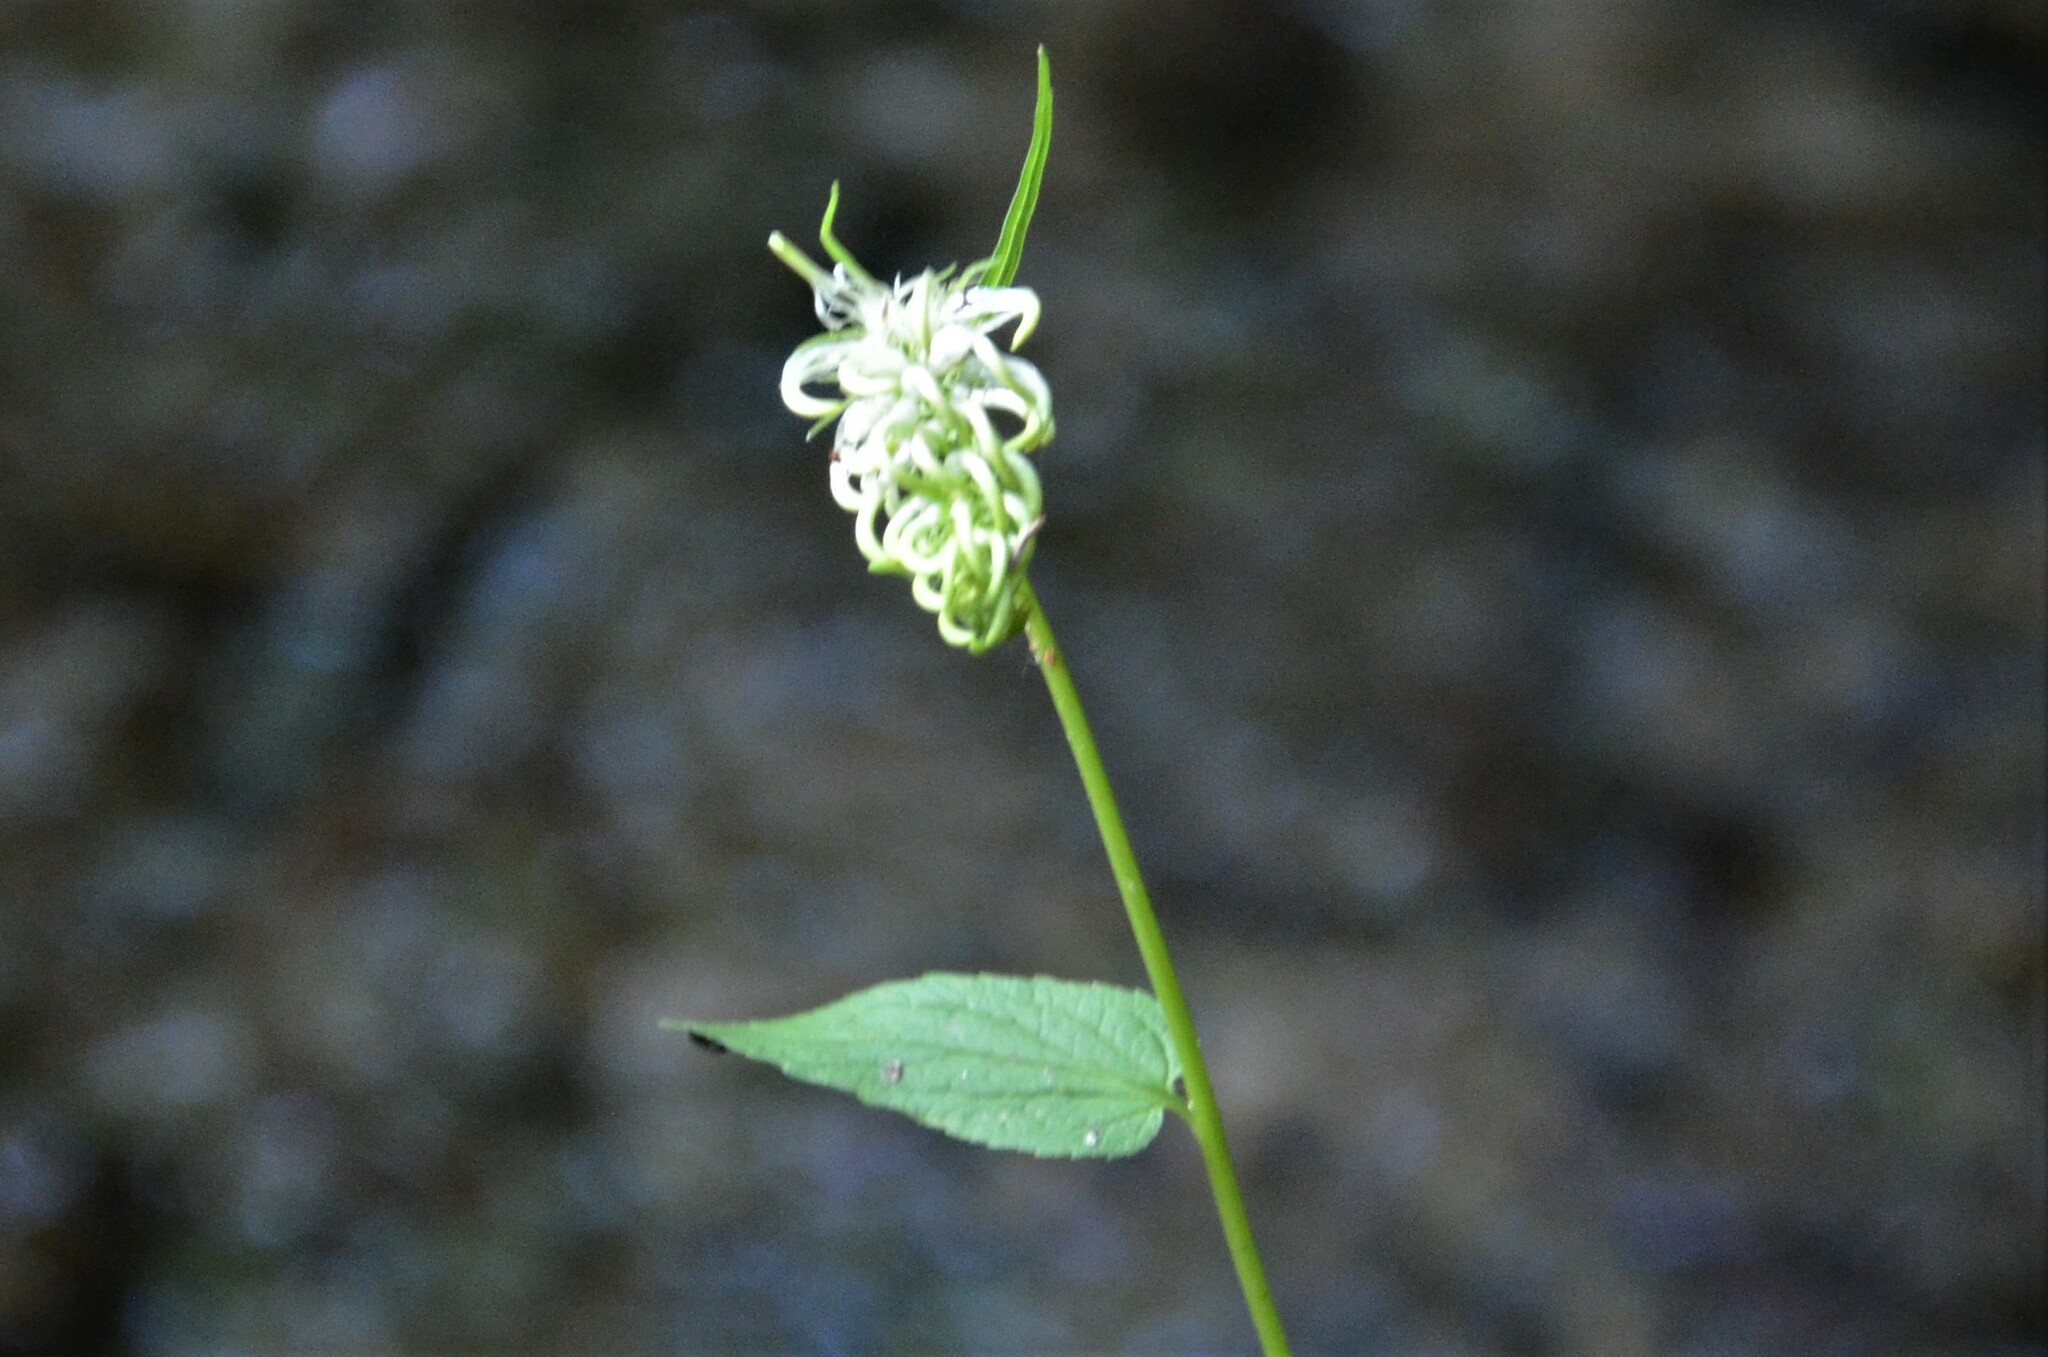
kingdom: Plantae
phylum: Tracheophyta
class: Magnoliopsida
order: Asterales
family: Campanulaceae
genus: Phyteuma
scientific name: Phyteuma spicatum
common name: Spiked rampion
